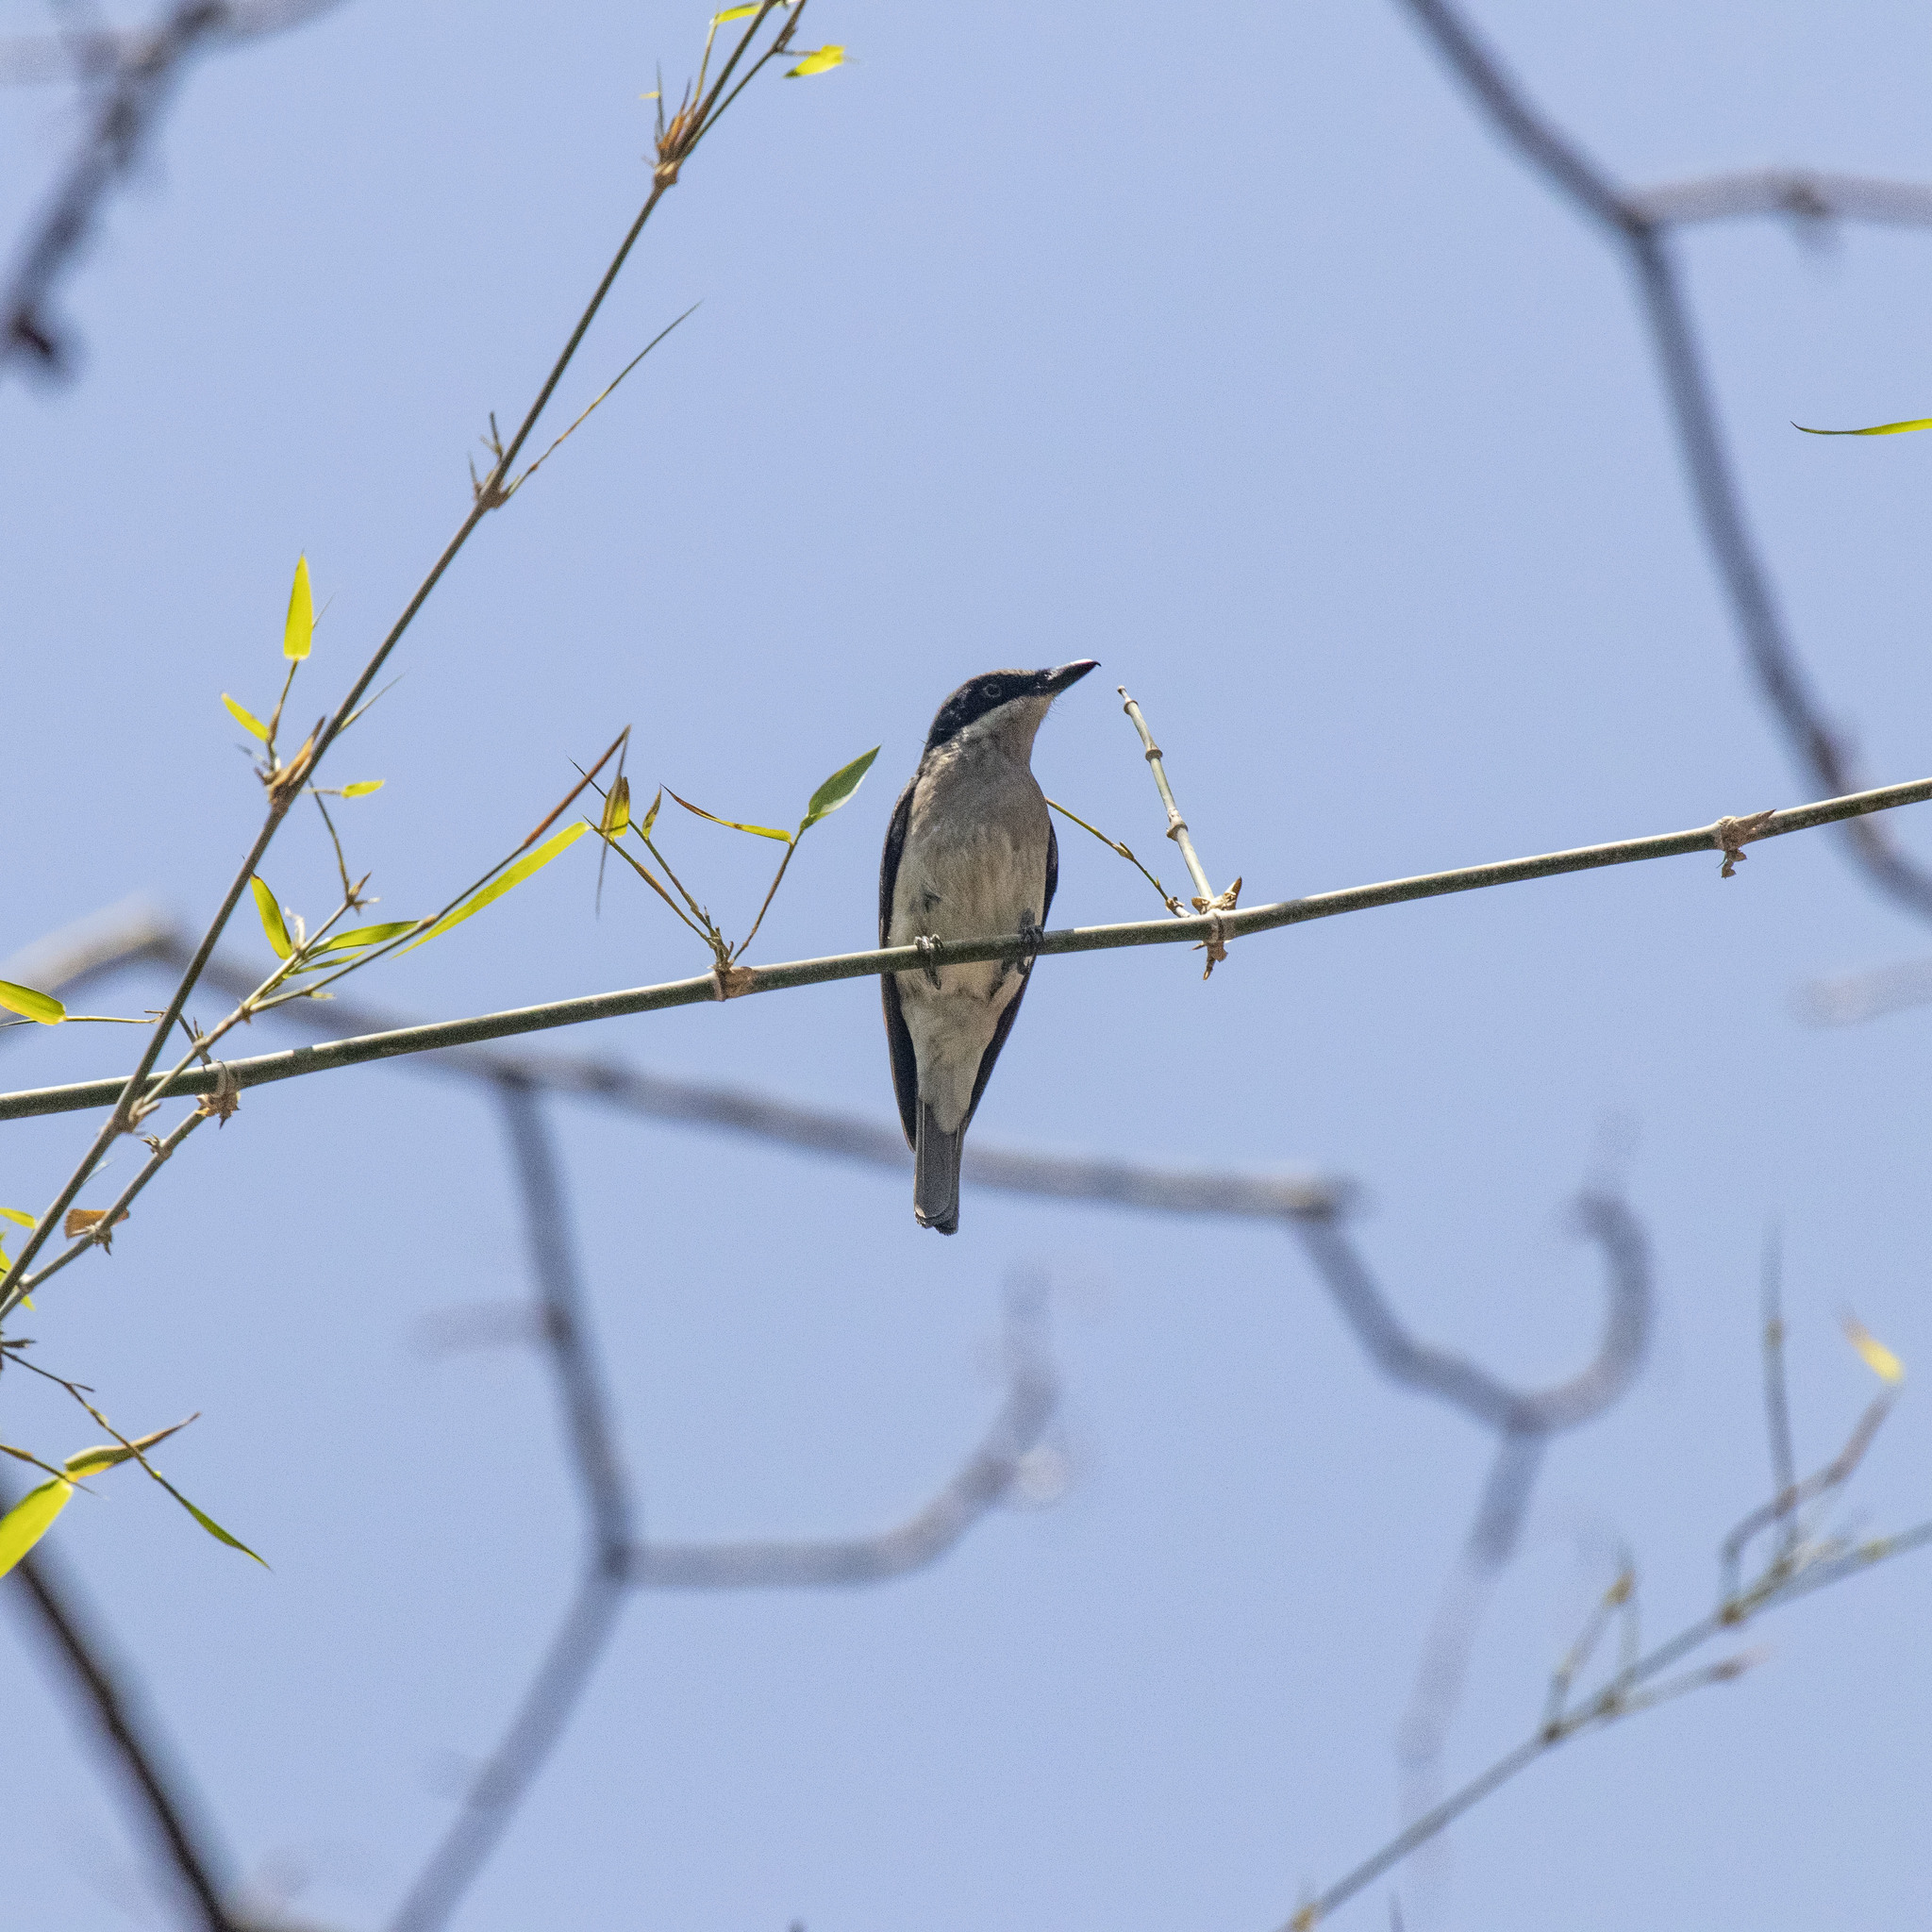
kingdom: Animalia
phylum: Chordata
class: Aves
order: Passeriformes
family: Tephrodornithidae
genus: Tephrodornis
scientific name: Tephrodornis sylvicola
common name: Malabar woodshrike
